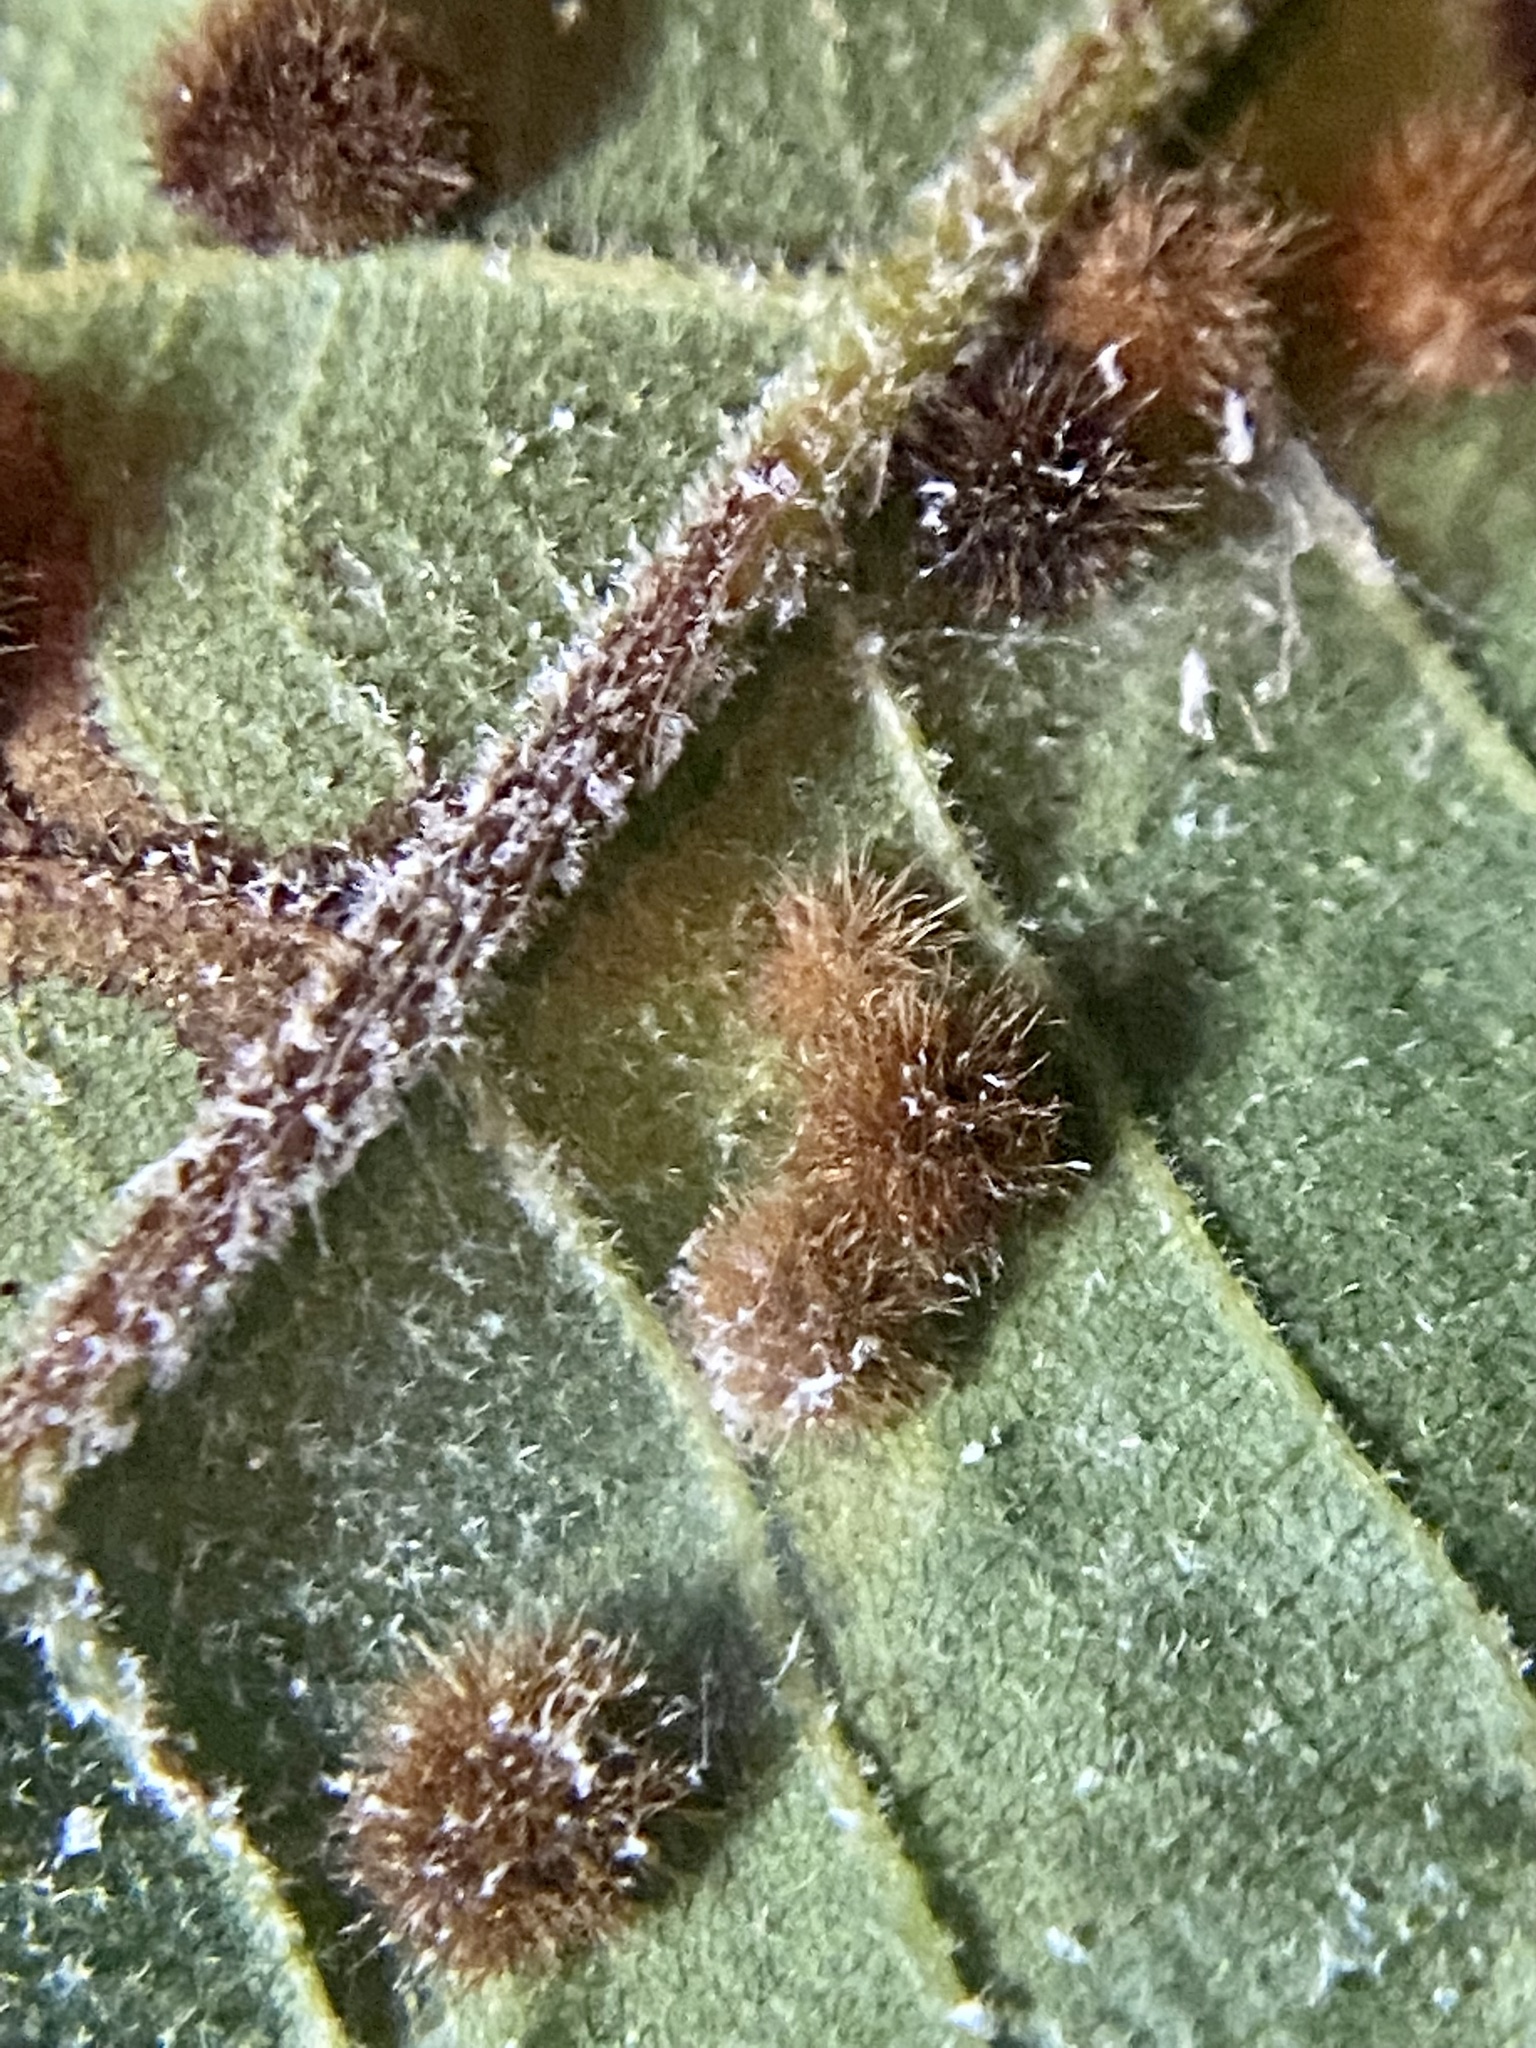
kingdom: Animalia
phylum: Arthropoda
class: Insecta
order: Diptera
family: Cecidomyiidae
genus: Caryomyia
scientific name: Caryomyia hirtiglobus
